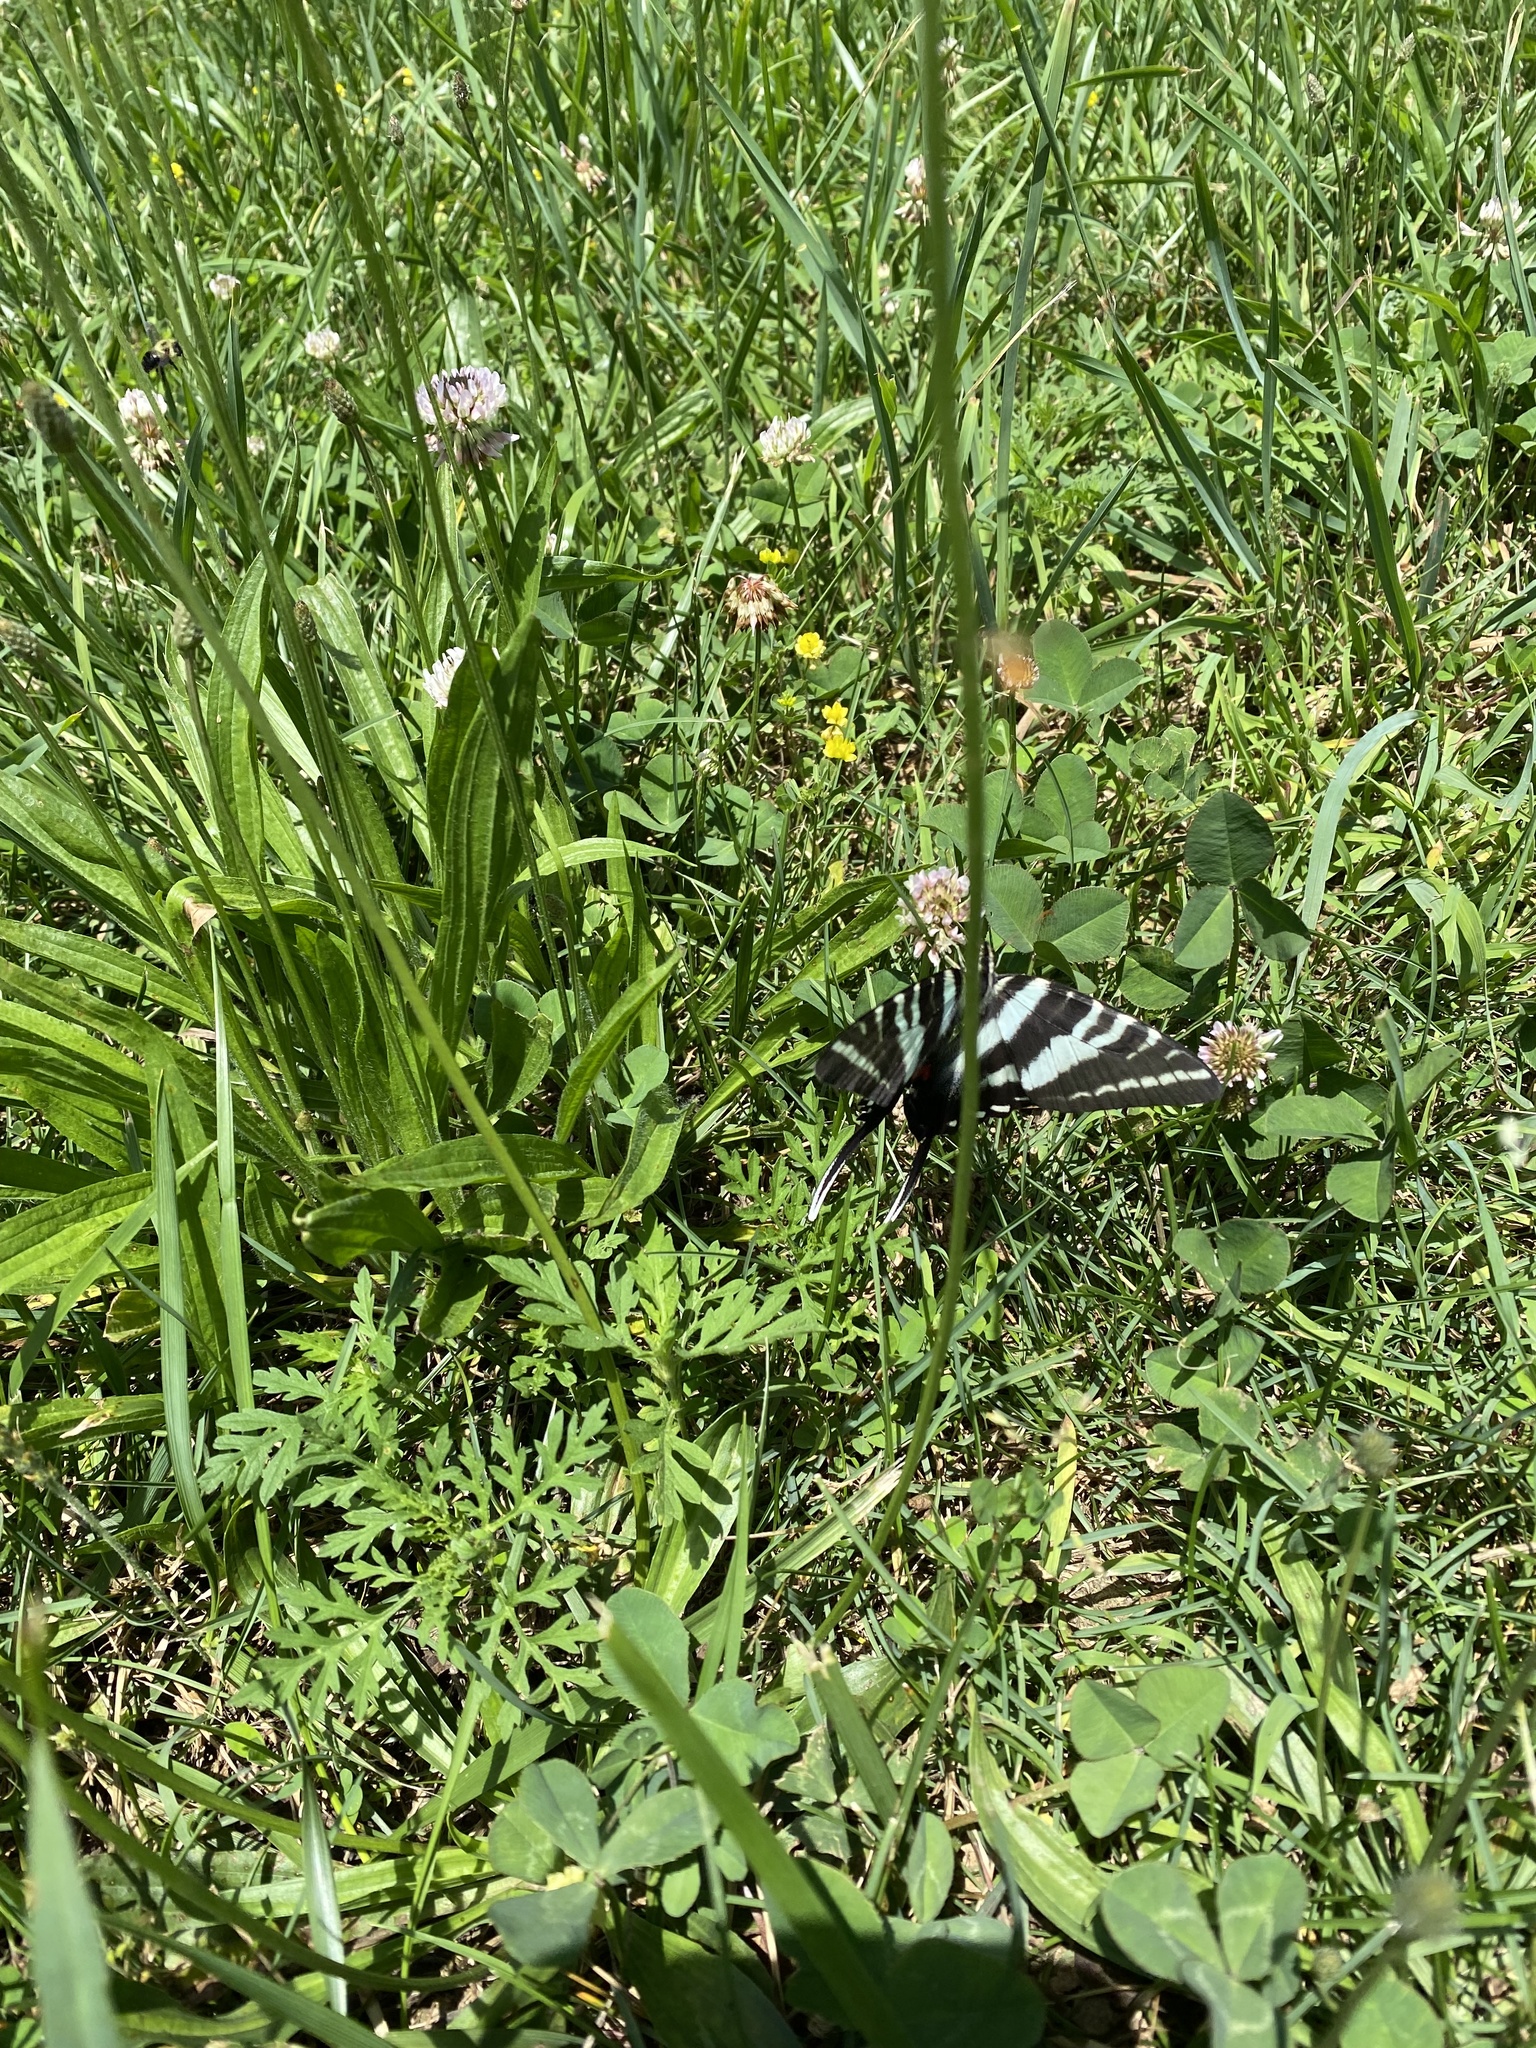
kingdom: Animalia
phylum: Arthropoda
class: Insecta
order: Lepidoptera
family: Papilionidae
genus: Protographium
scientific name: Protographium marcellus
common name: Zebra swallowtail
